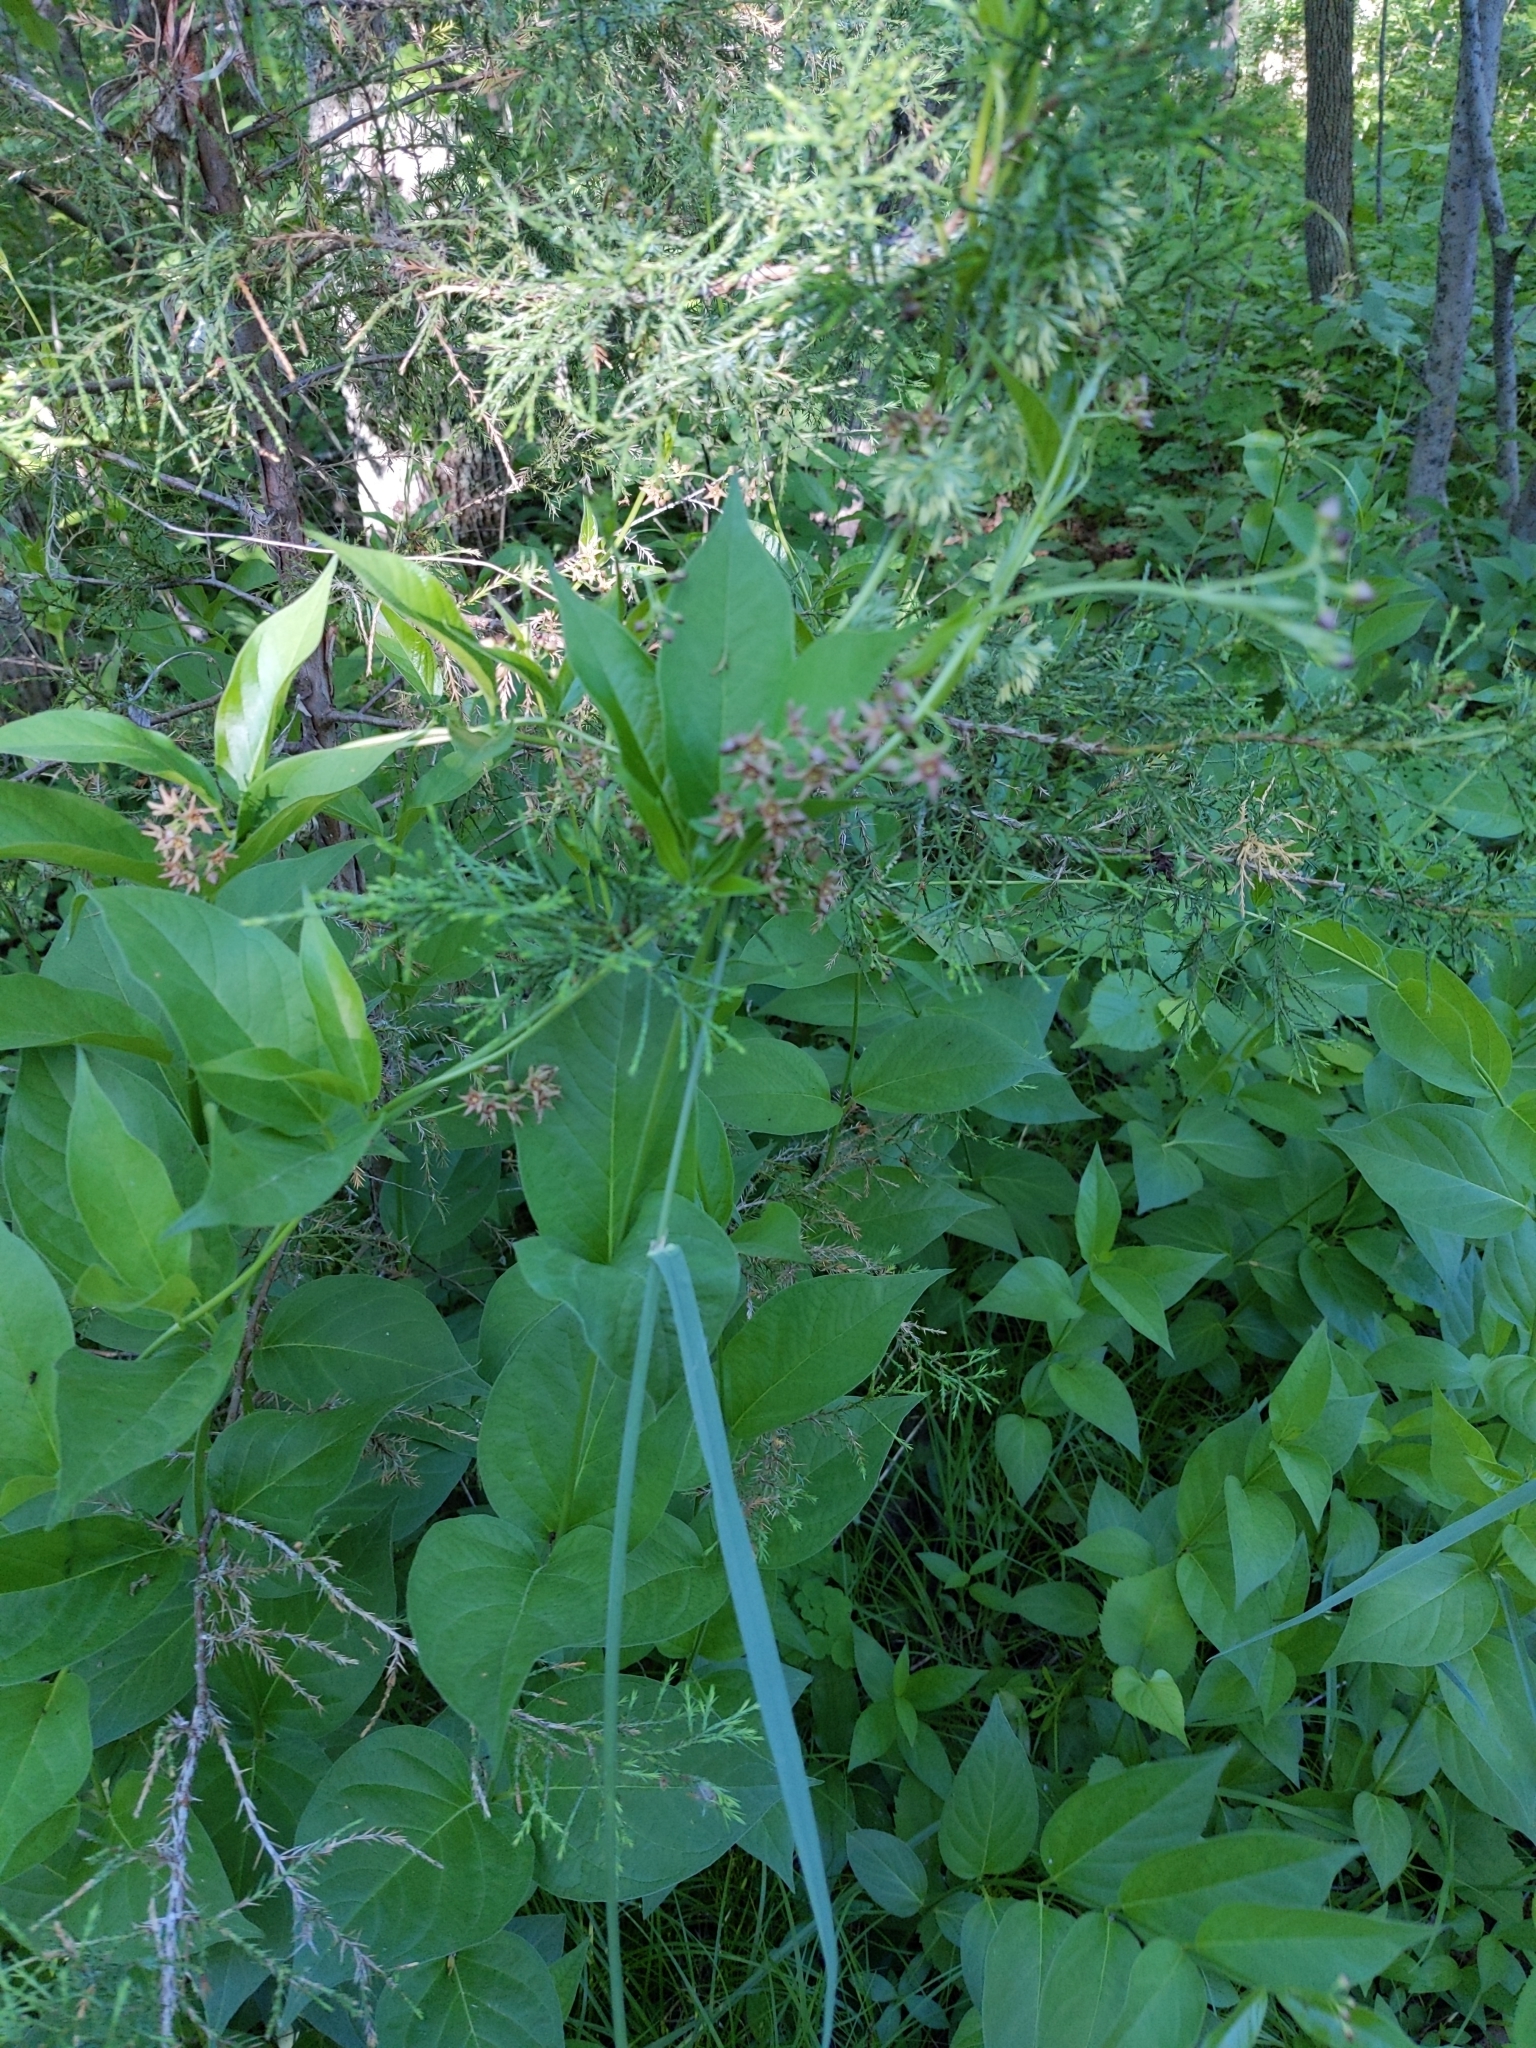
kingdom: Plantae
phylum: Tracheophyta
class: Magnoliopsida
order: Gentianales
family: Apocynaceae
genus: Vincetoxicum
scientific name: Vincetoxicum rossicum
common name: Dog-strangling vine
